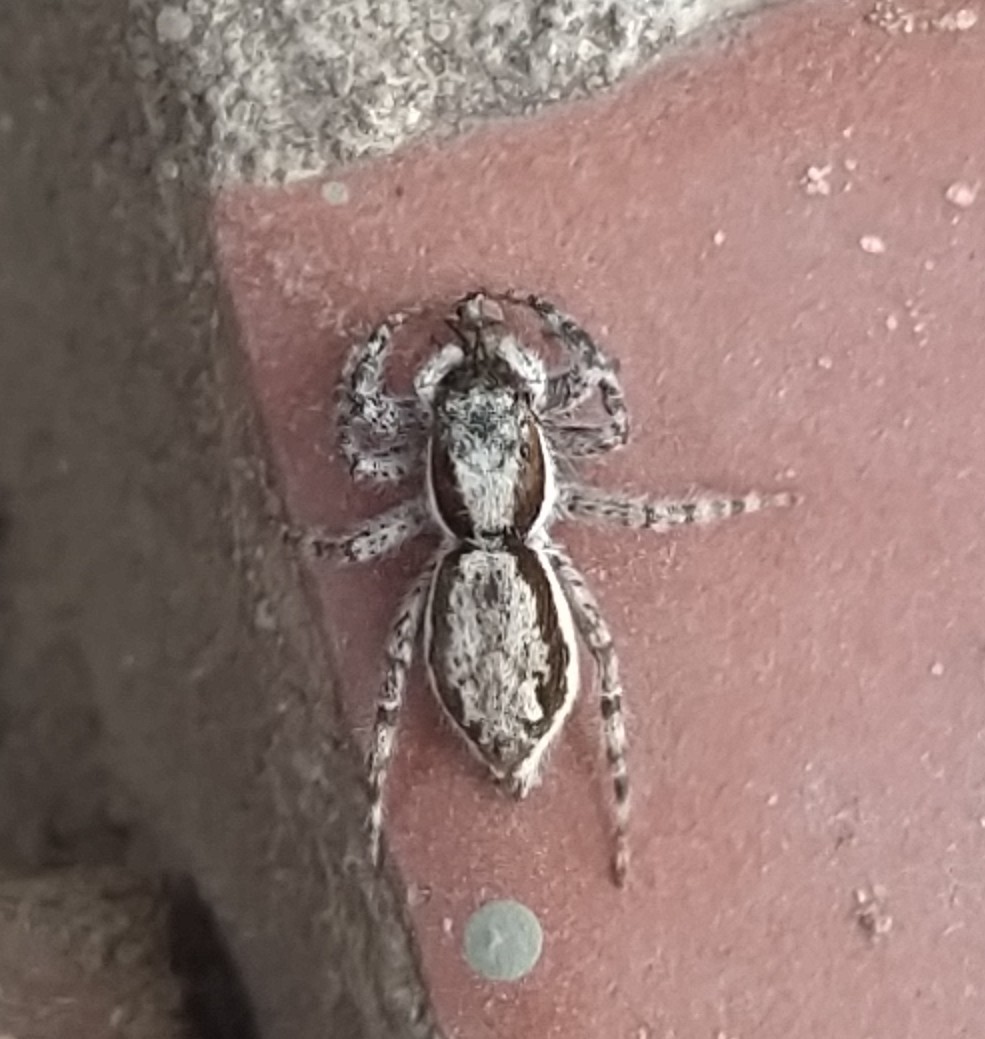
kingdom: Animalia
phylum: Arthropoda
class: Arachnida
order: Araneae
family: Salticidae
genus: Menemerus
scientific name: Menemerus bivittatus
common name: Gray wall jumper
